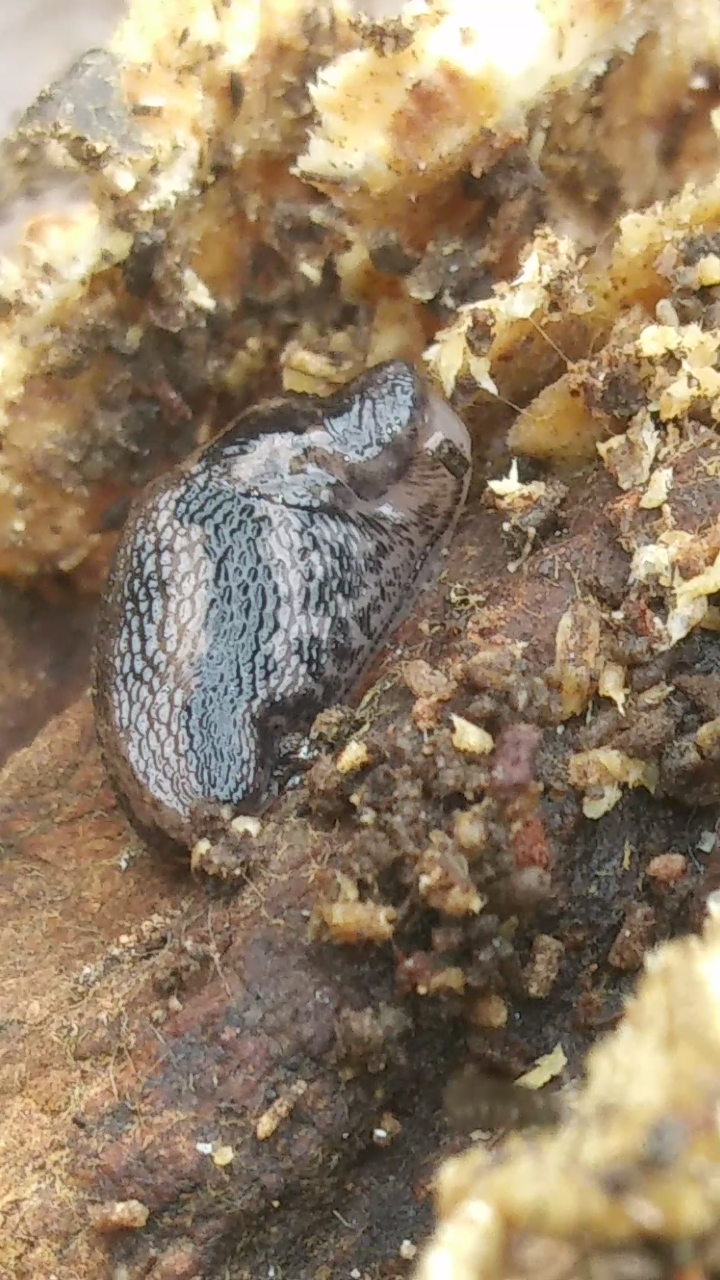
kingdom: Animalia
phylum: Mollusca
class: Gastropoda
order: Stylommatophora
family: Limacidae
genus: Limax
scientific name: Limax maximus
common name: Great grey slug
